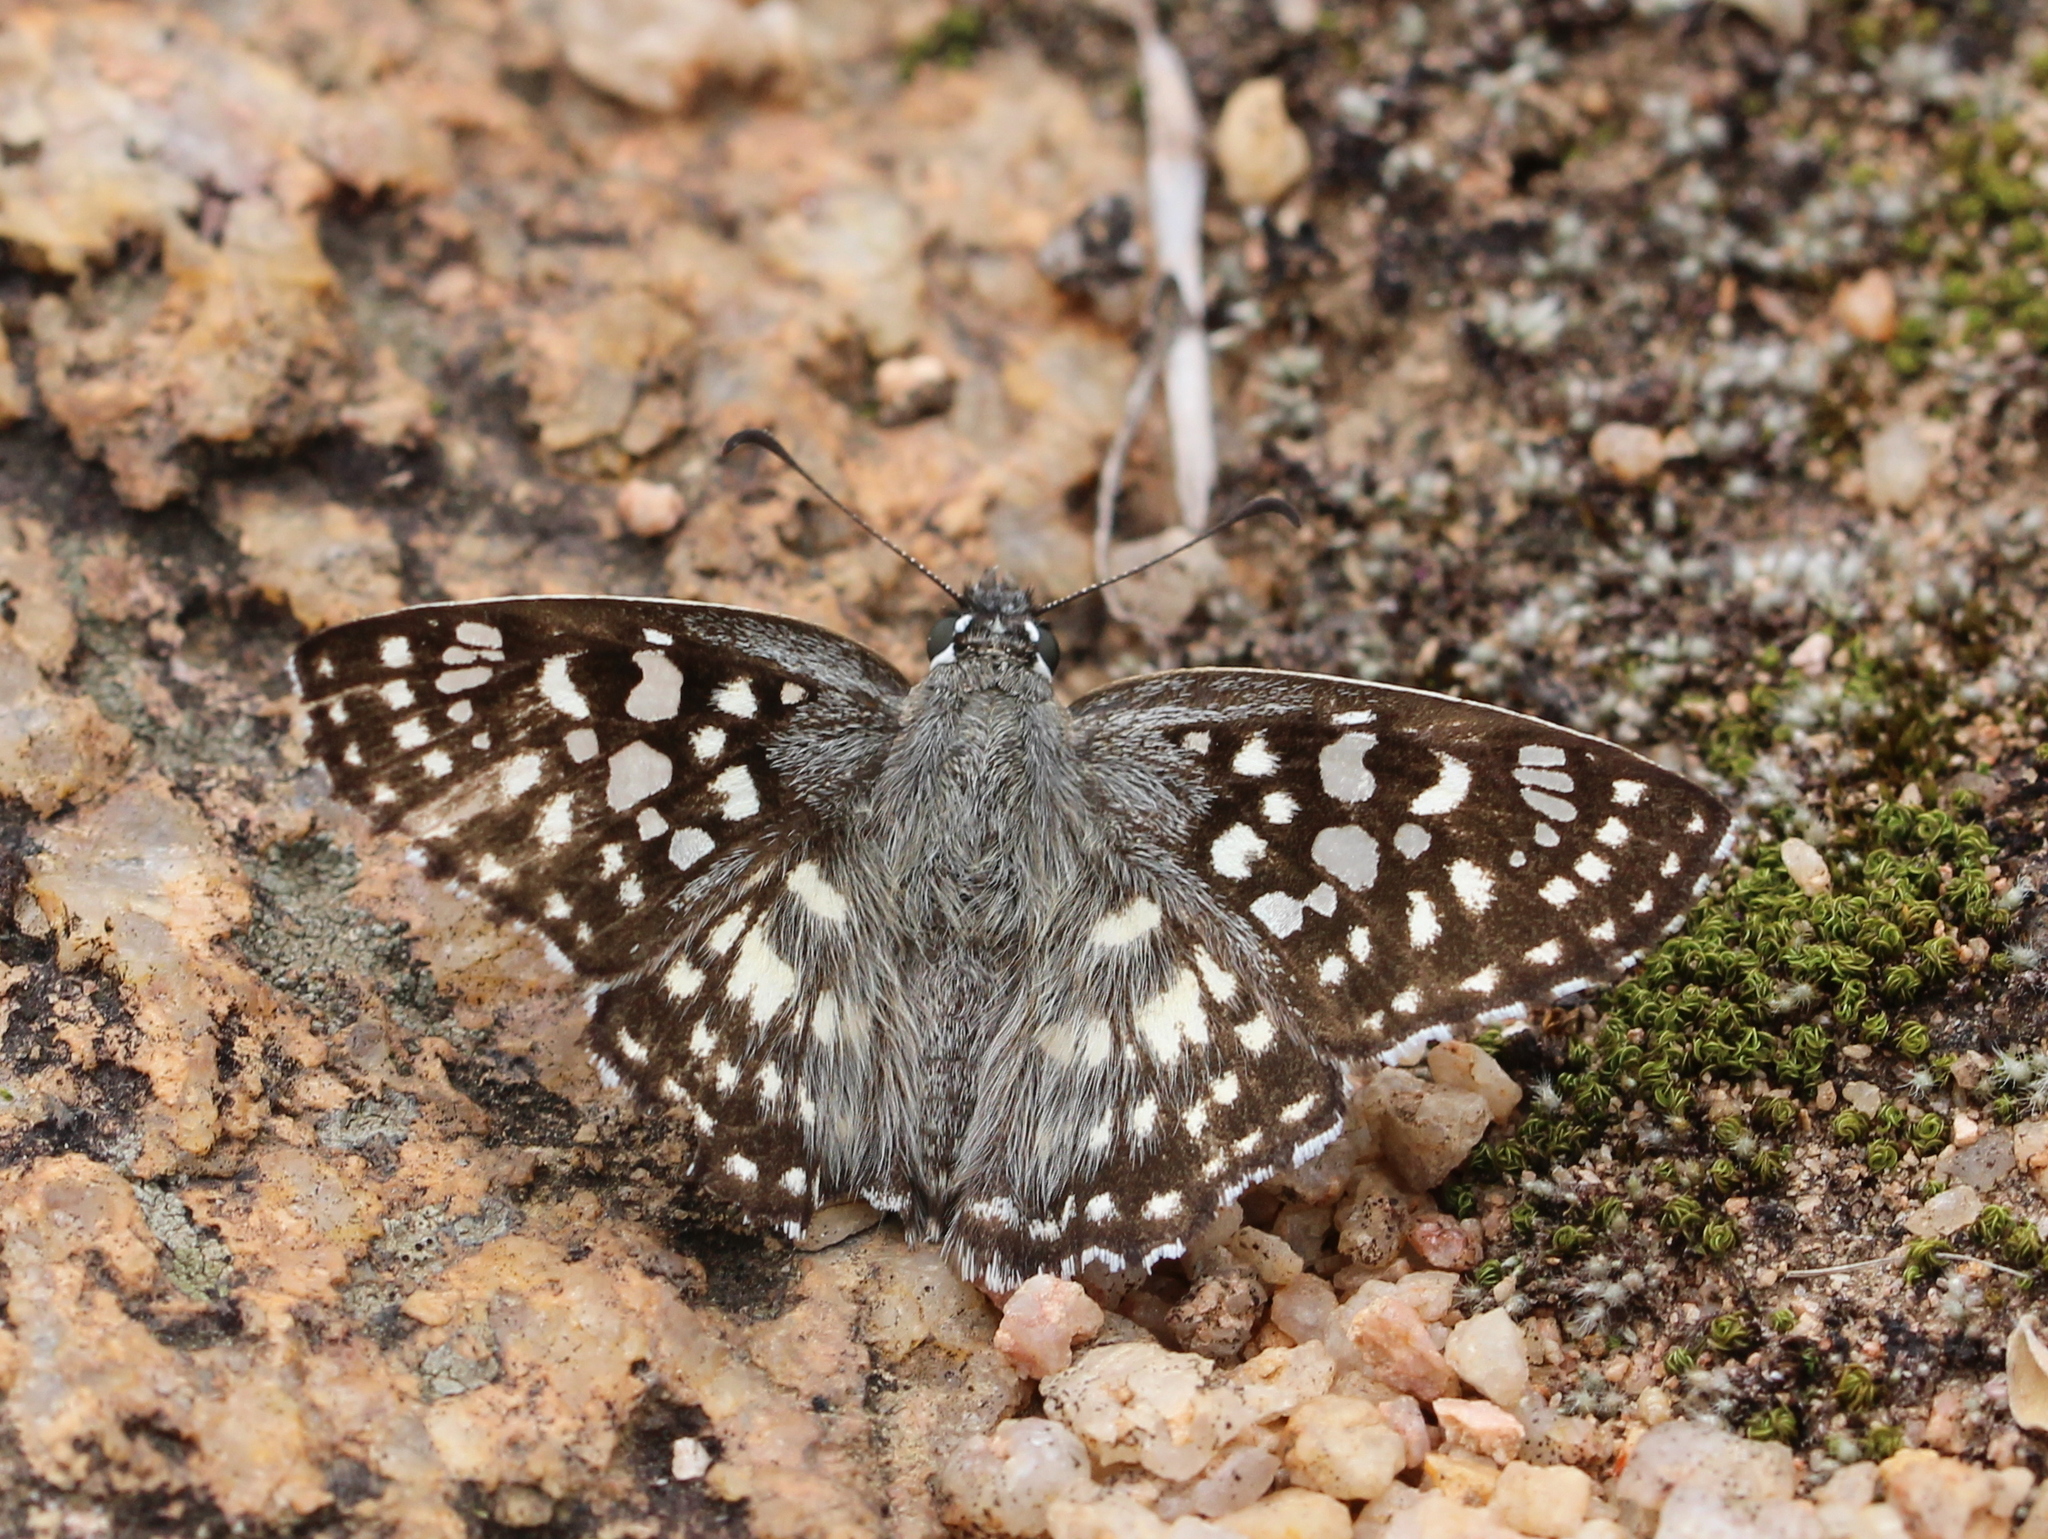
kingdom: Animalia
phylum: Arthropoda
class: Insecta
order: Lepidoptera
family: Hesperiidae
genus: Caprona
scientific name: Caprona agama
